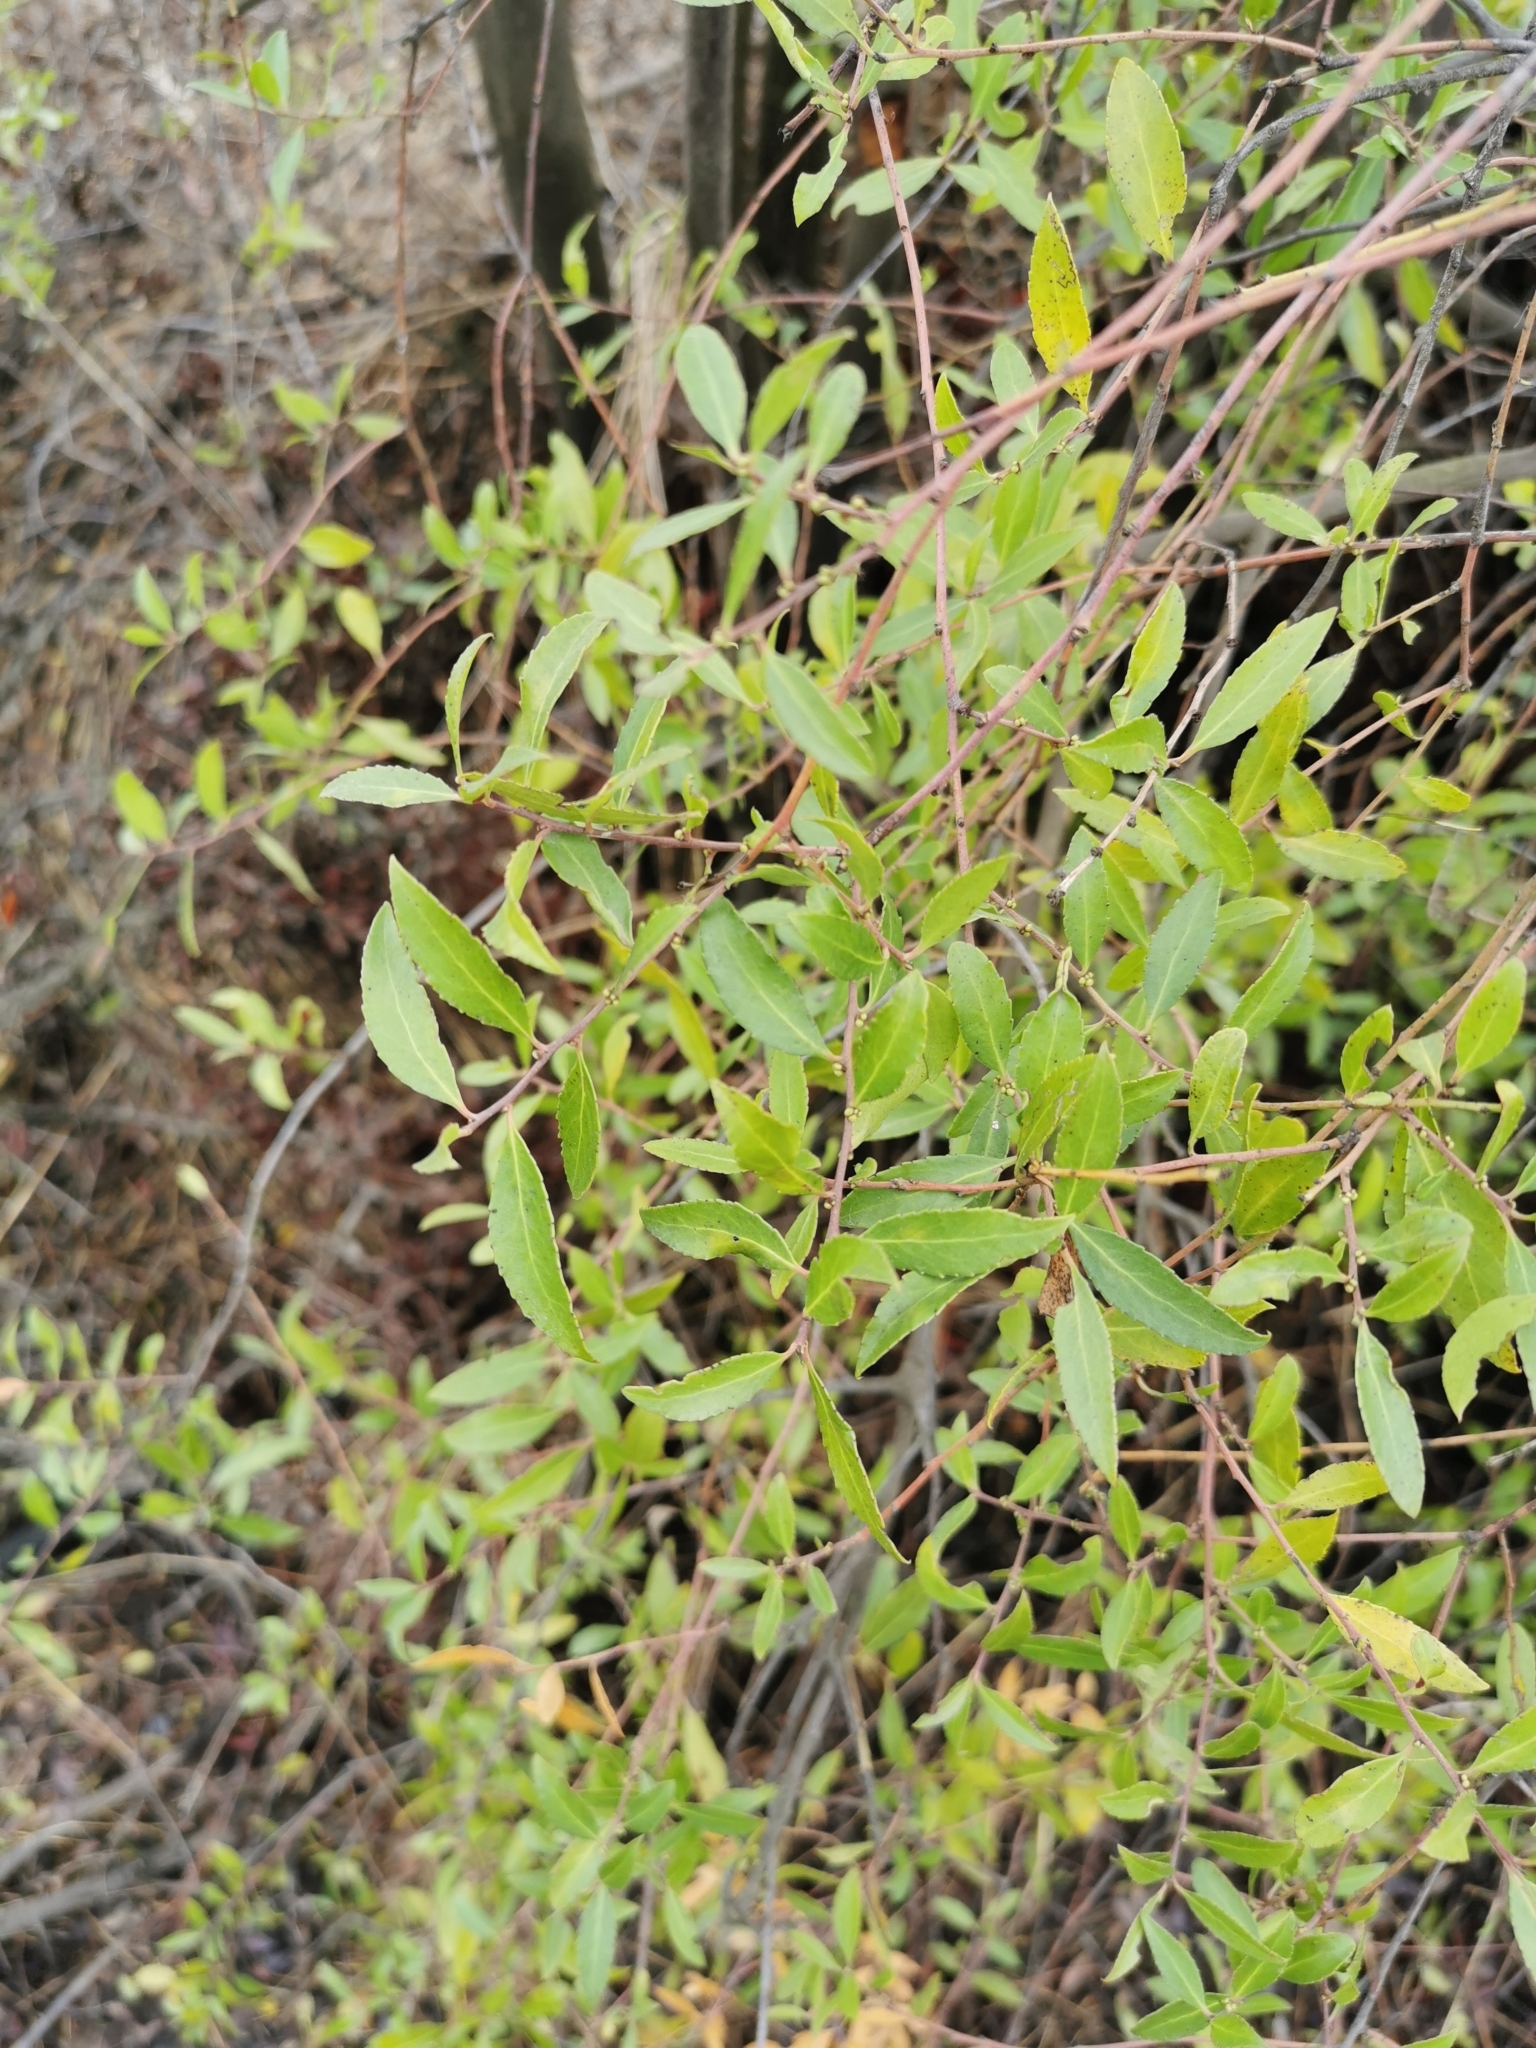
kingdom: Plantae
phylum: Tracheophyta
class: Magnoliopsida
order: Celastrales
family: Celastraceae
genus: Maytenus
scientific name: Maytenus boaria
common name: Mayten
